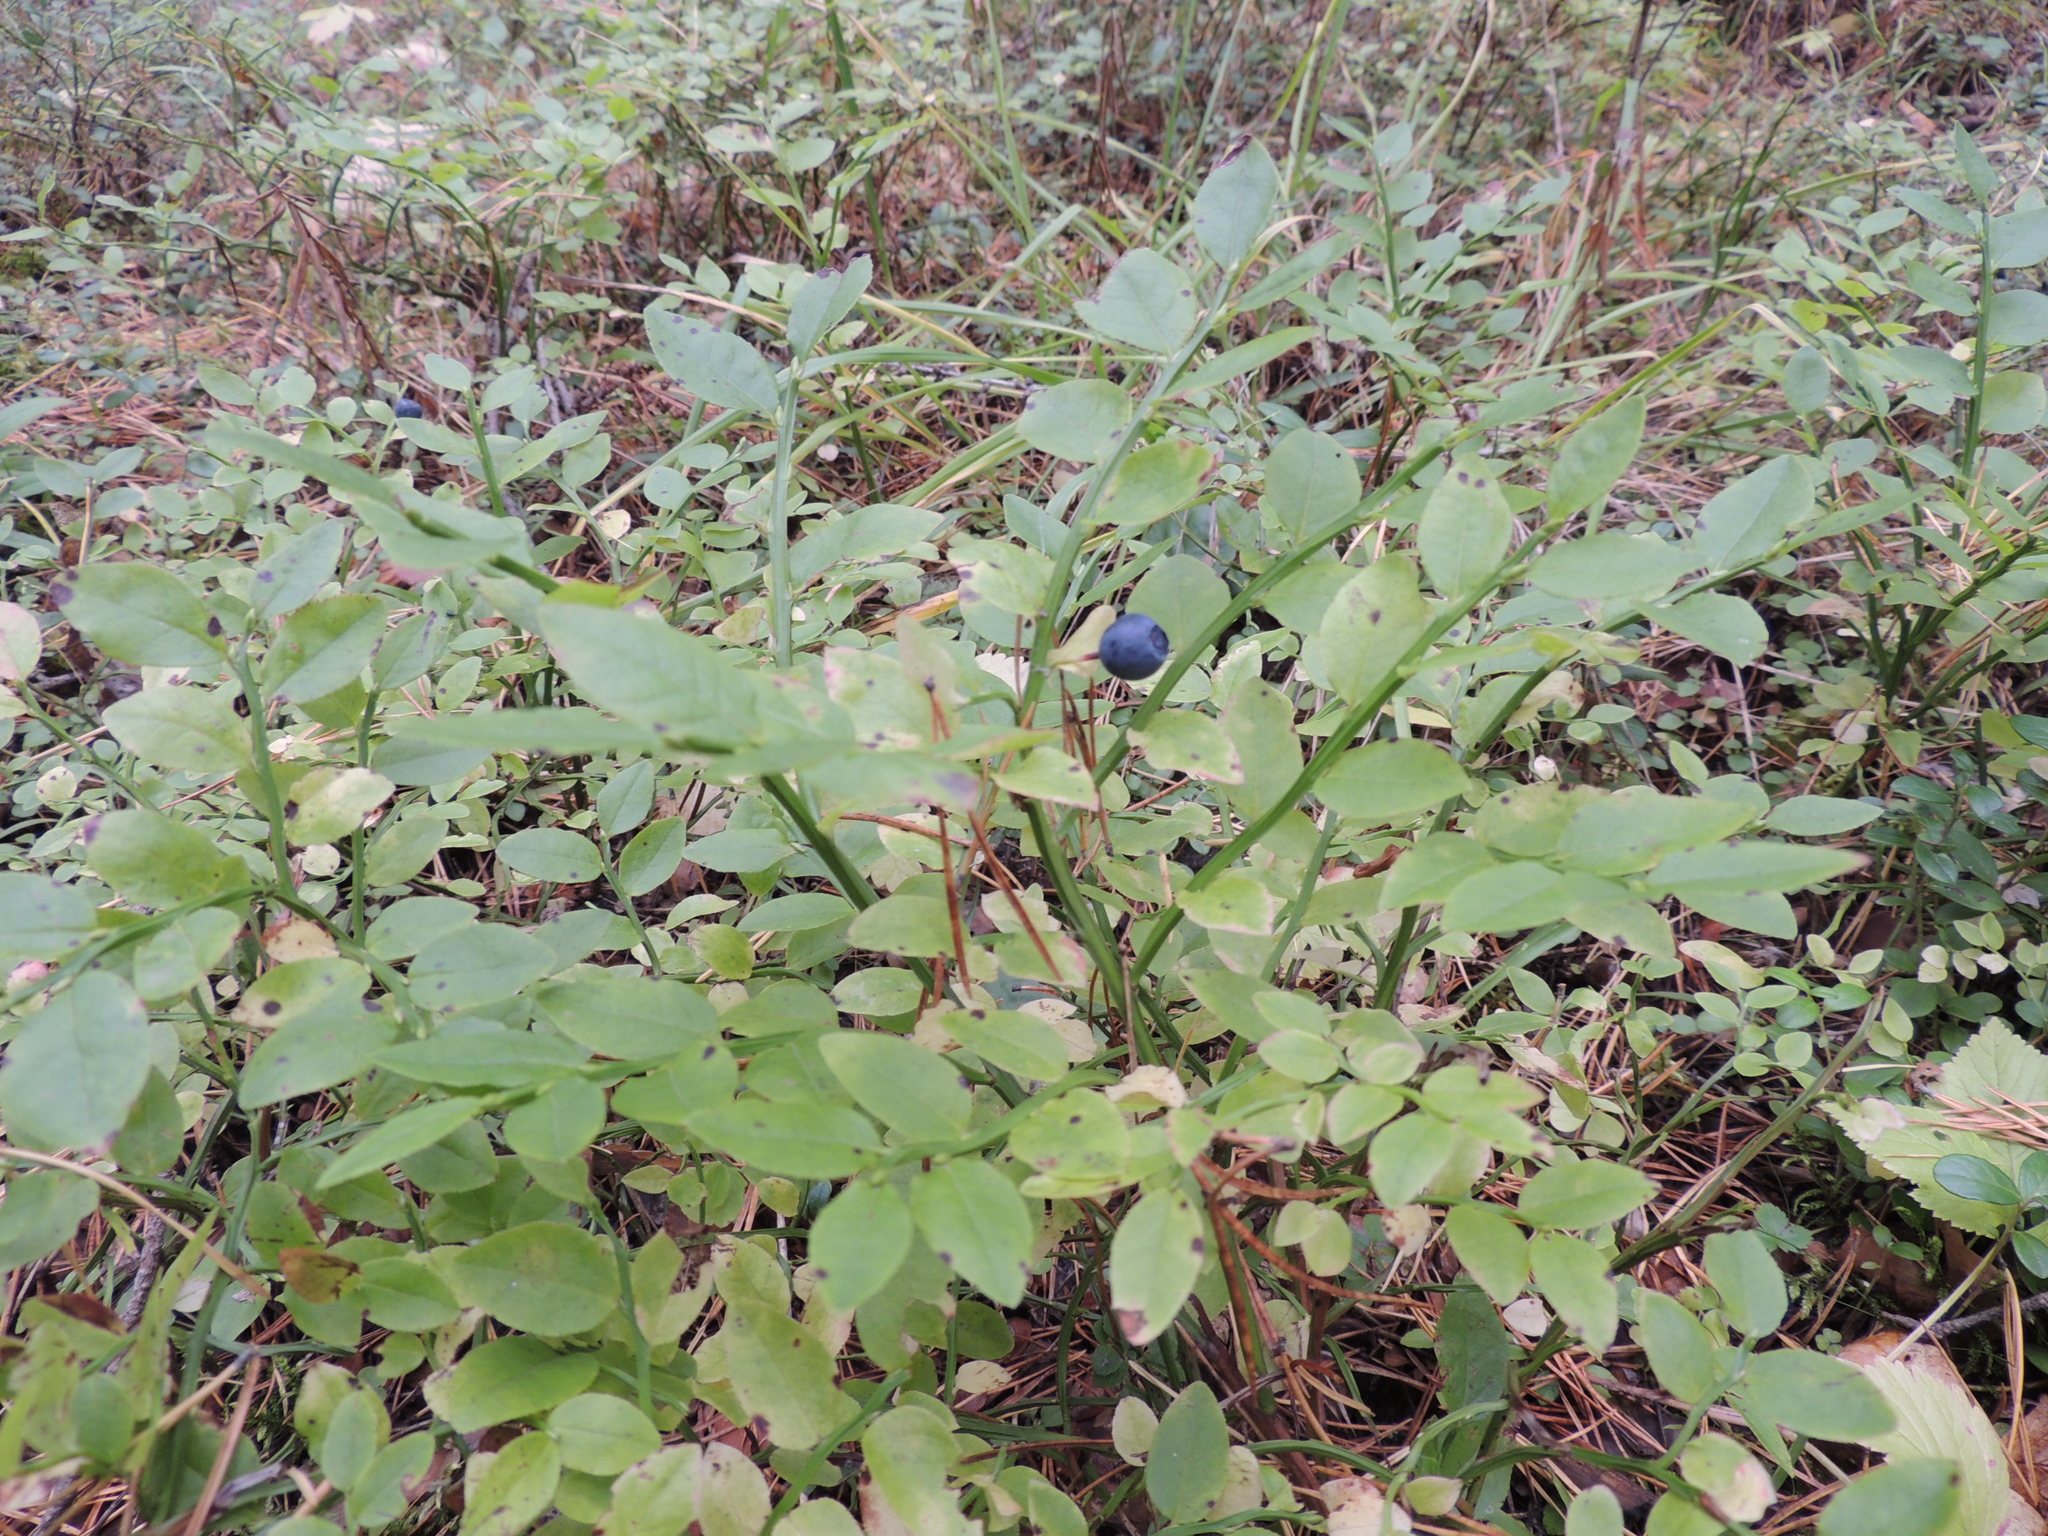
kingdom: Plantae
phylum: Tracheophyta
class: Magnoliopsida
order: Ericales
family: Ericaceae
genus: Vaccinium
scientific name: Vaccinium myrtillus
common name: Bilberry
